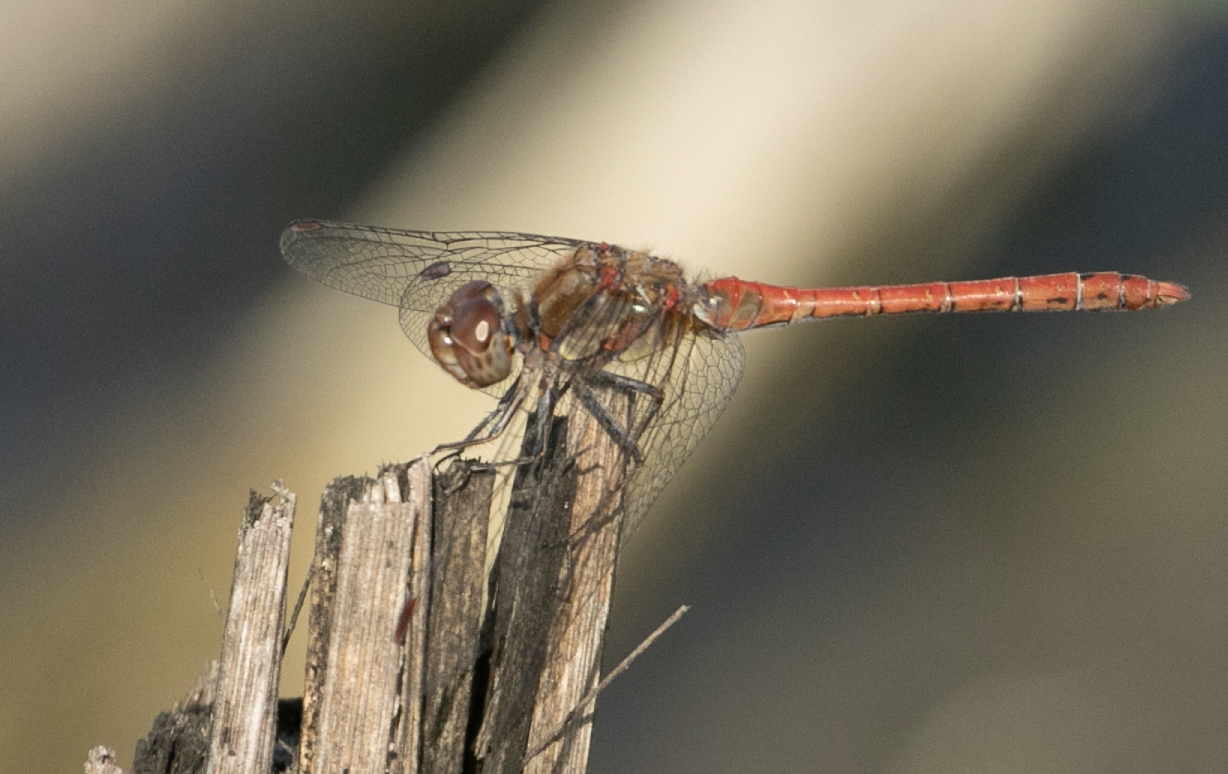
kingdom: Animalia
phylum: Arthropoda
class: Insecta
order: Odonata
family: Libellulidae
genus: Sympetrum
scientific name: Sympetrum striolatum
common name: Common darter
